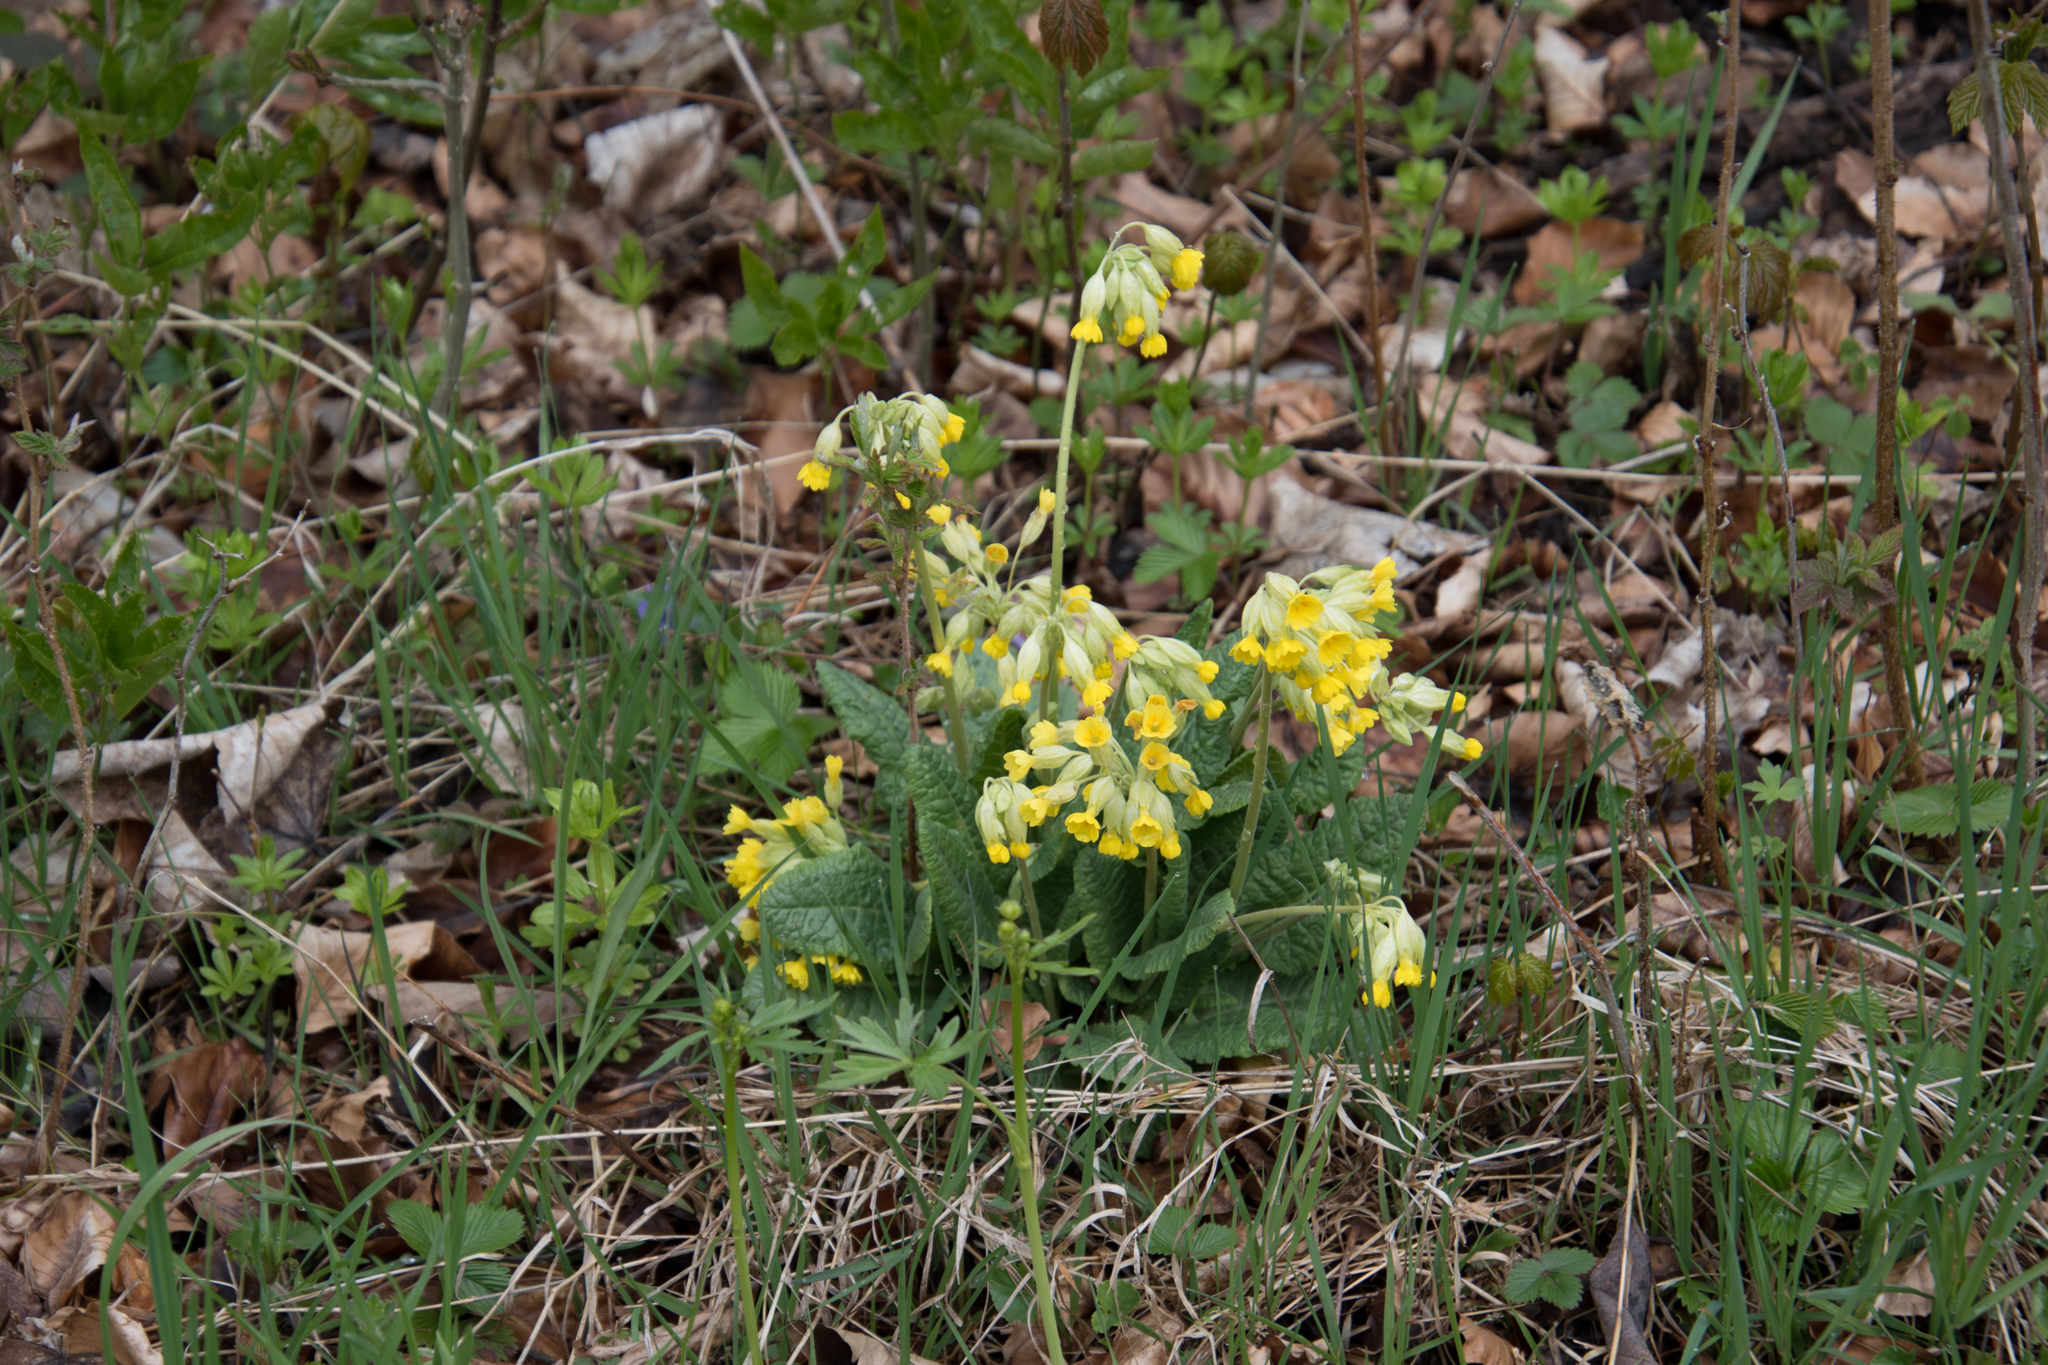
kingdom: Plantae
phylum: Tracheophyta
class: Magnoliopsida
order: Ericales
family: Primulaceae
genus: Primula
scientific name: Primula veris
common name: Cowslip
